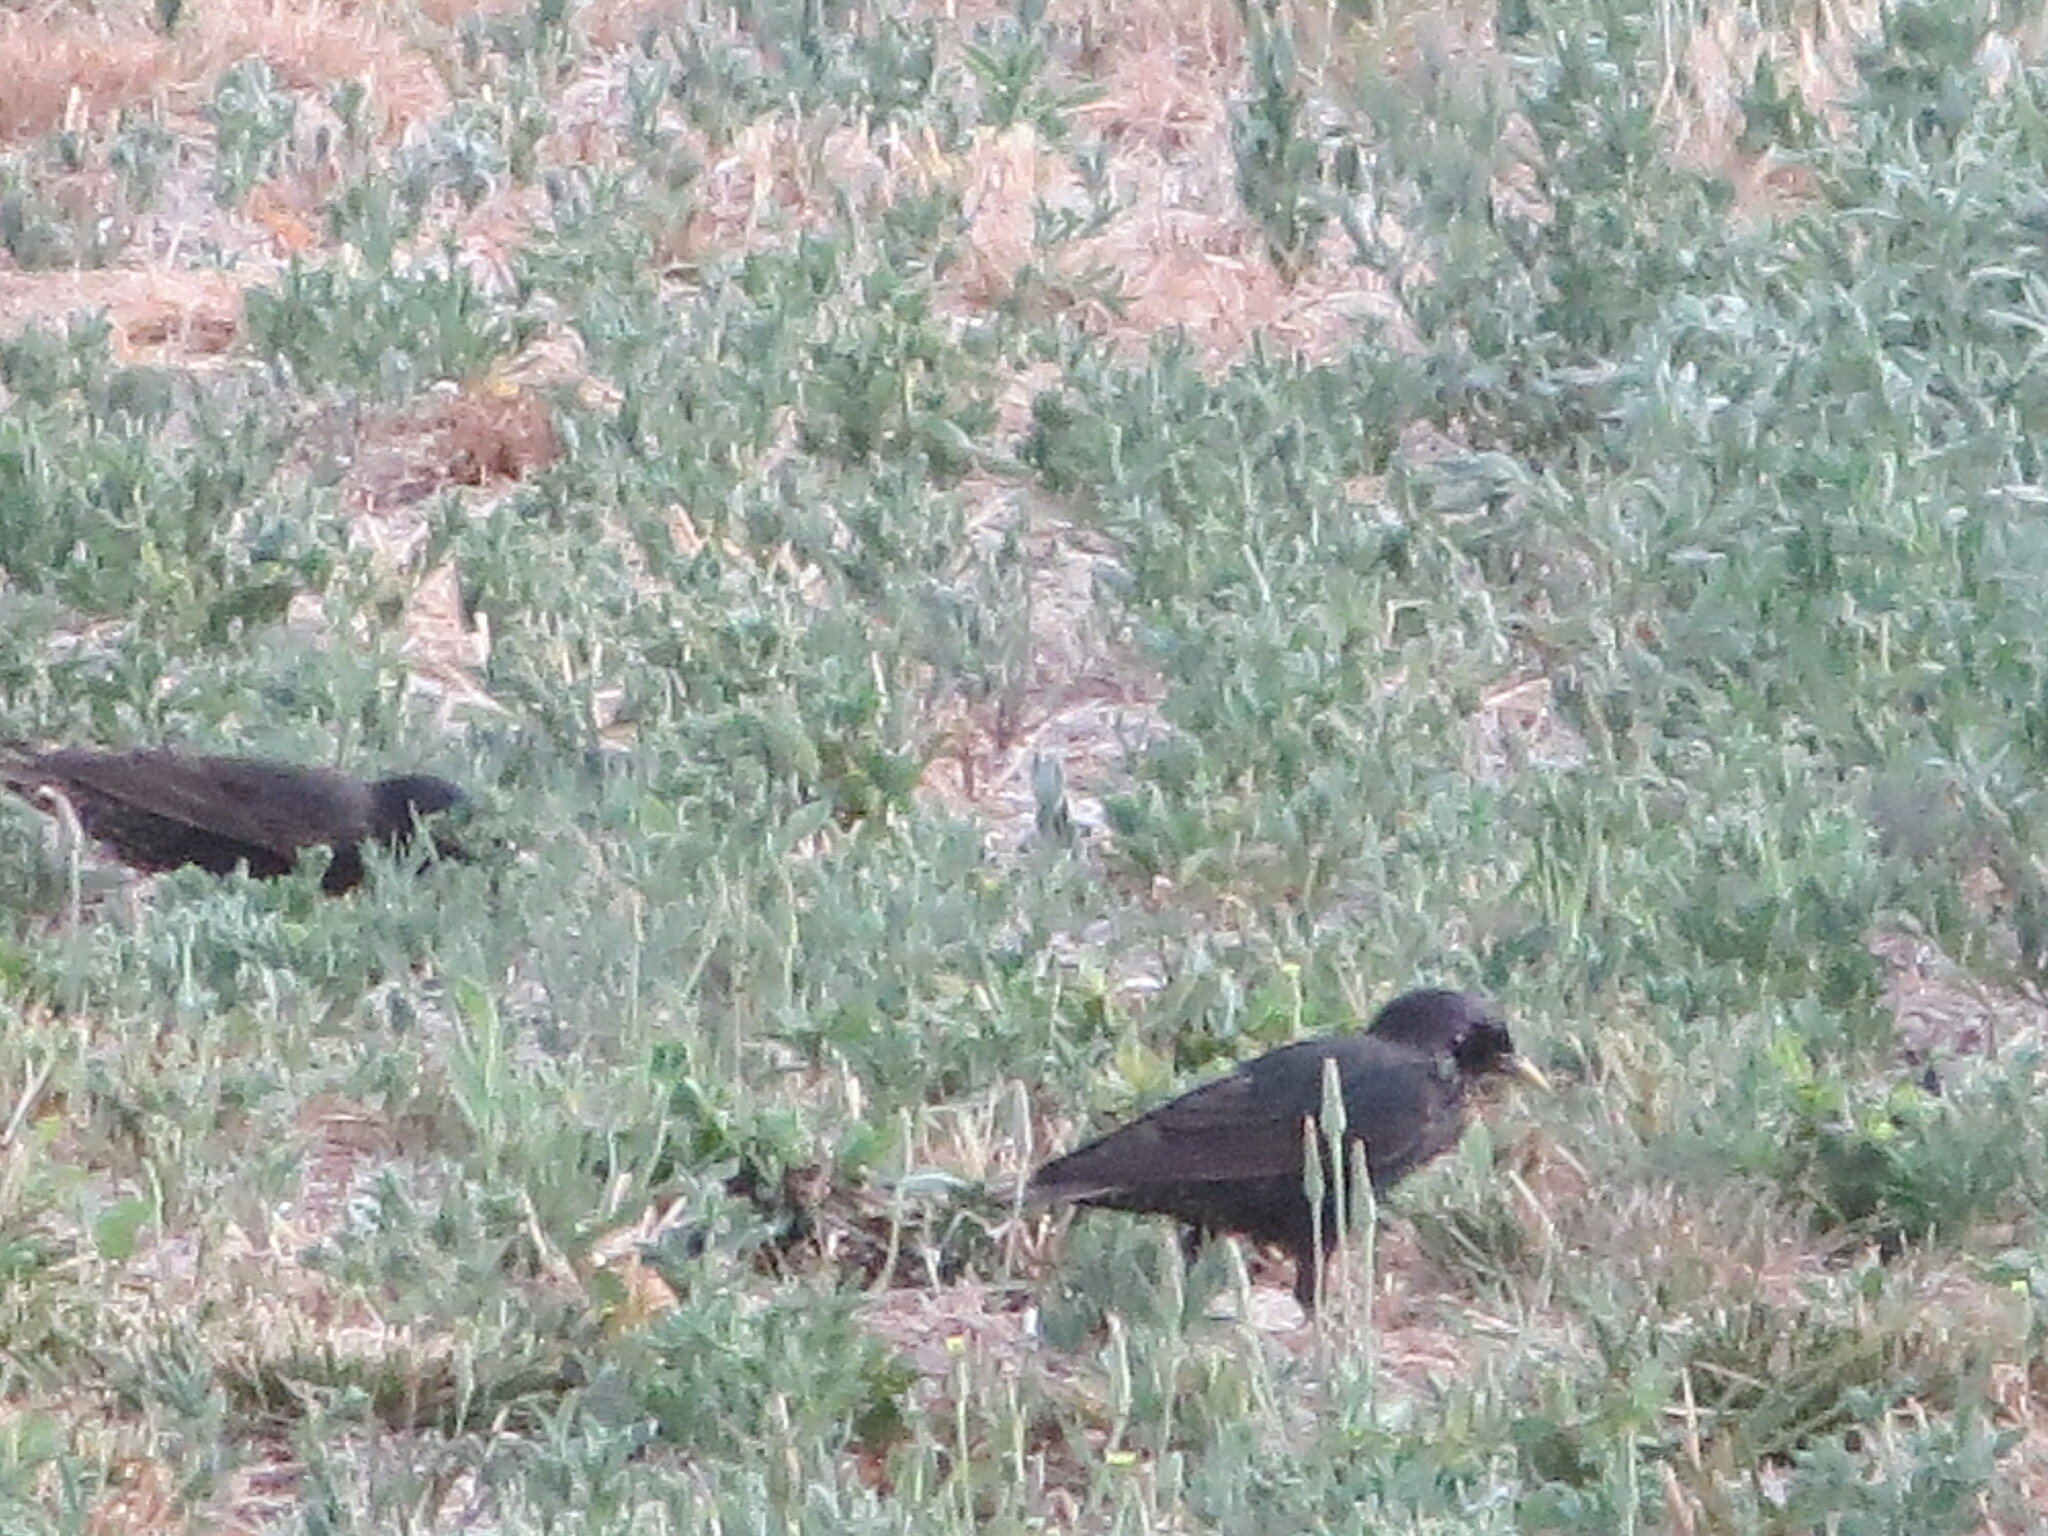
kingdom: Animalia
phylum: Chordata
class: Aves
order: Passeriformes
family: Sturnidae
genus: Sturnus
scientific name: Sturnus vulgaris
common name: Common starling
